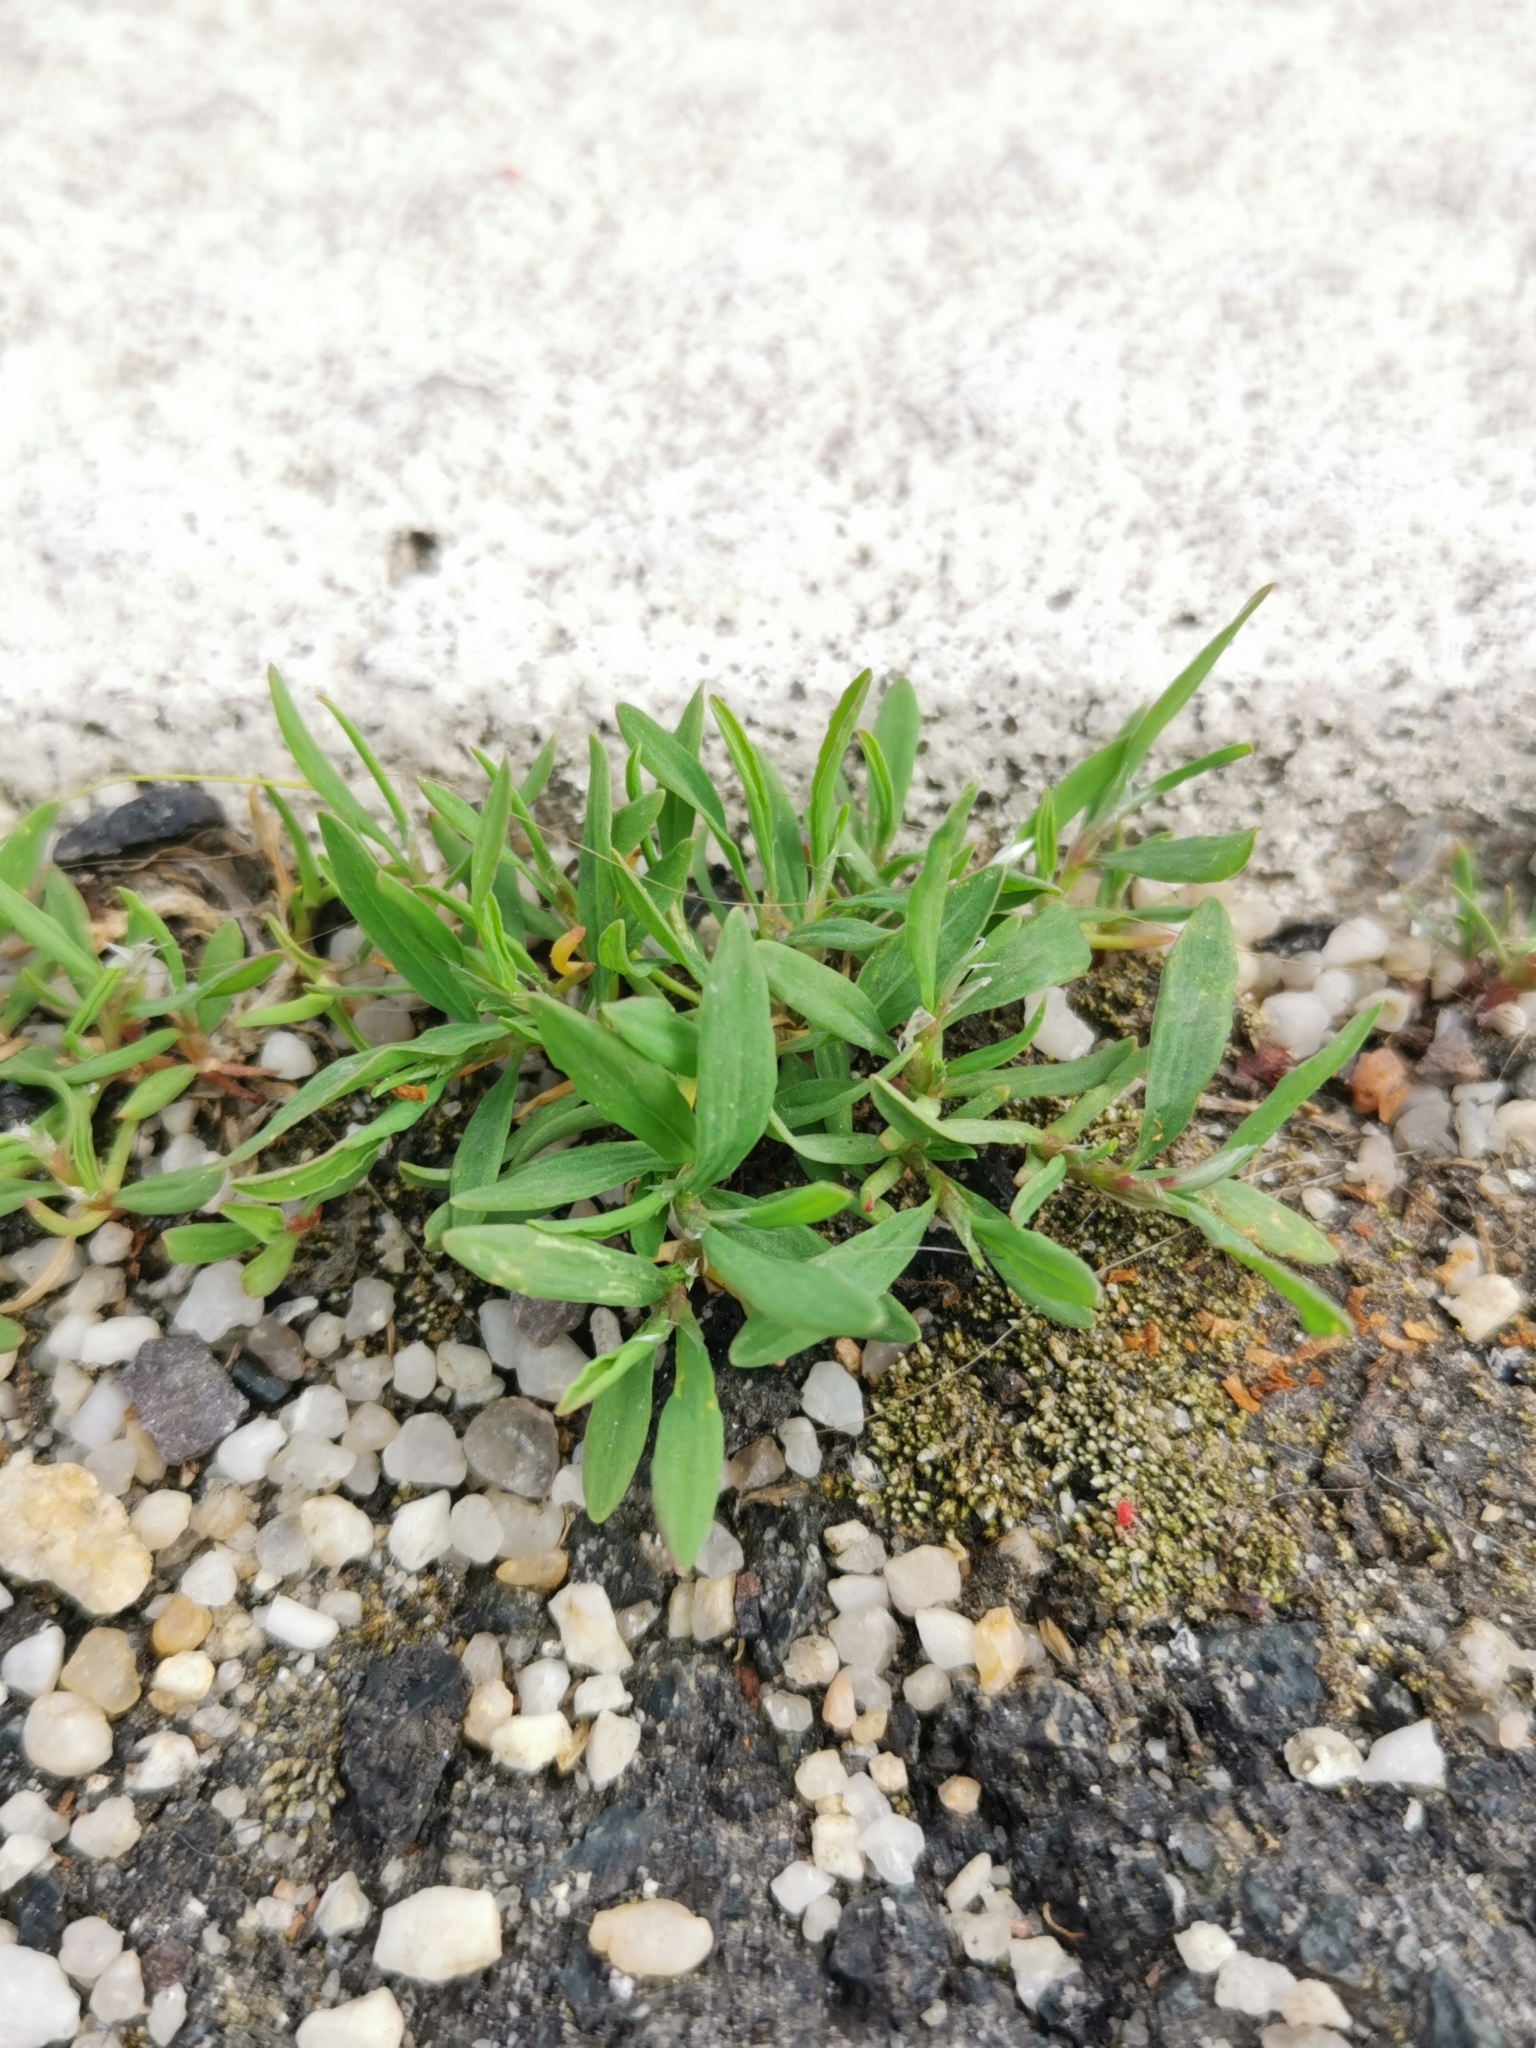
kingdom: Plantae
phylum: Tracheophyta
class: Magnoliopsida
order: Caryophyllales
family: Polygonaceae
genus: Polygonum
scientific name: Polygonum aviculare
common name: Prostrate knotweed
